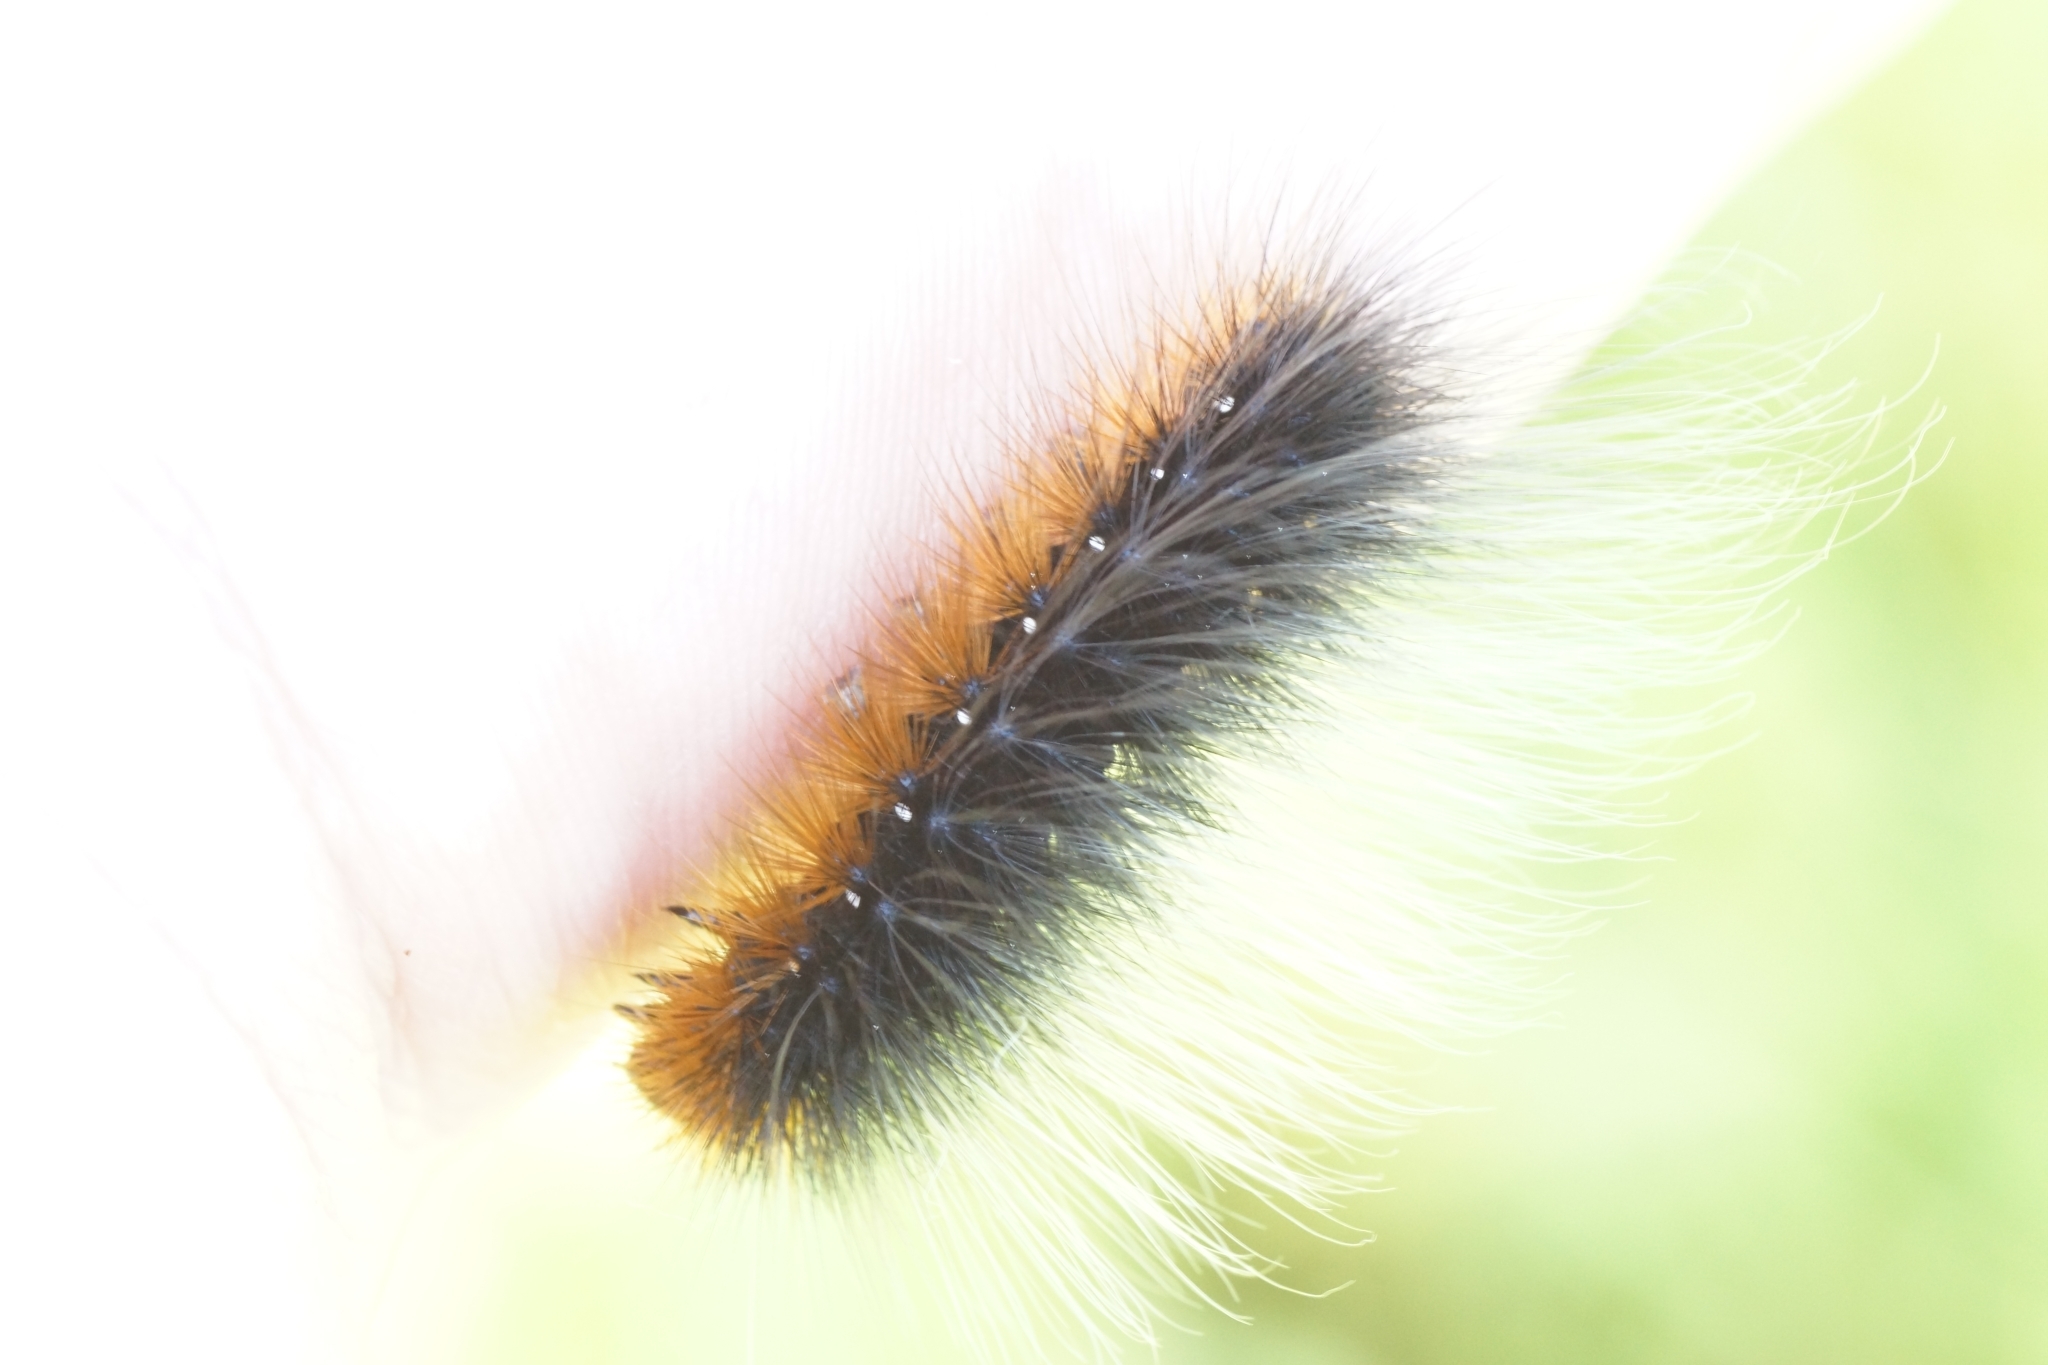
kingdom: Animalia
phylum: Arthropoda
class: Insecta
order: Lepidoptera
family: Erebidae
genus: Arctia
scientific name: Arctia caja
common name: Garden tiger
